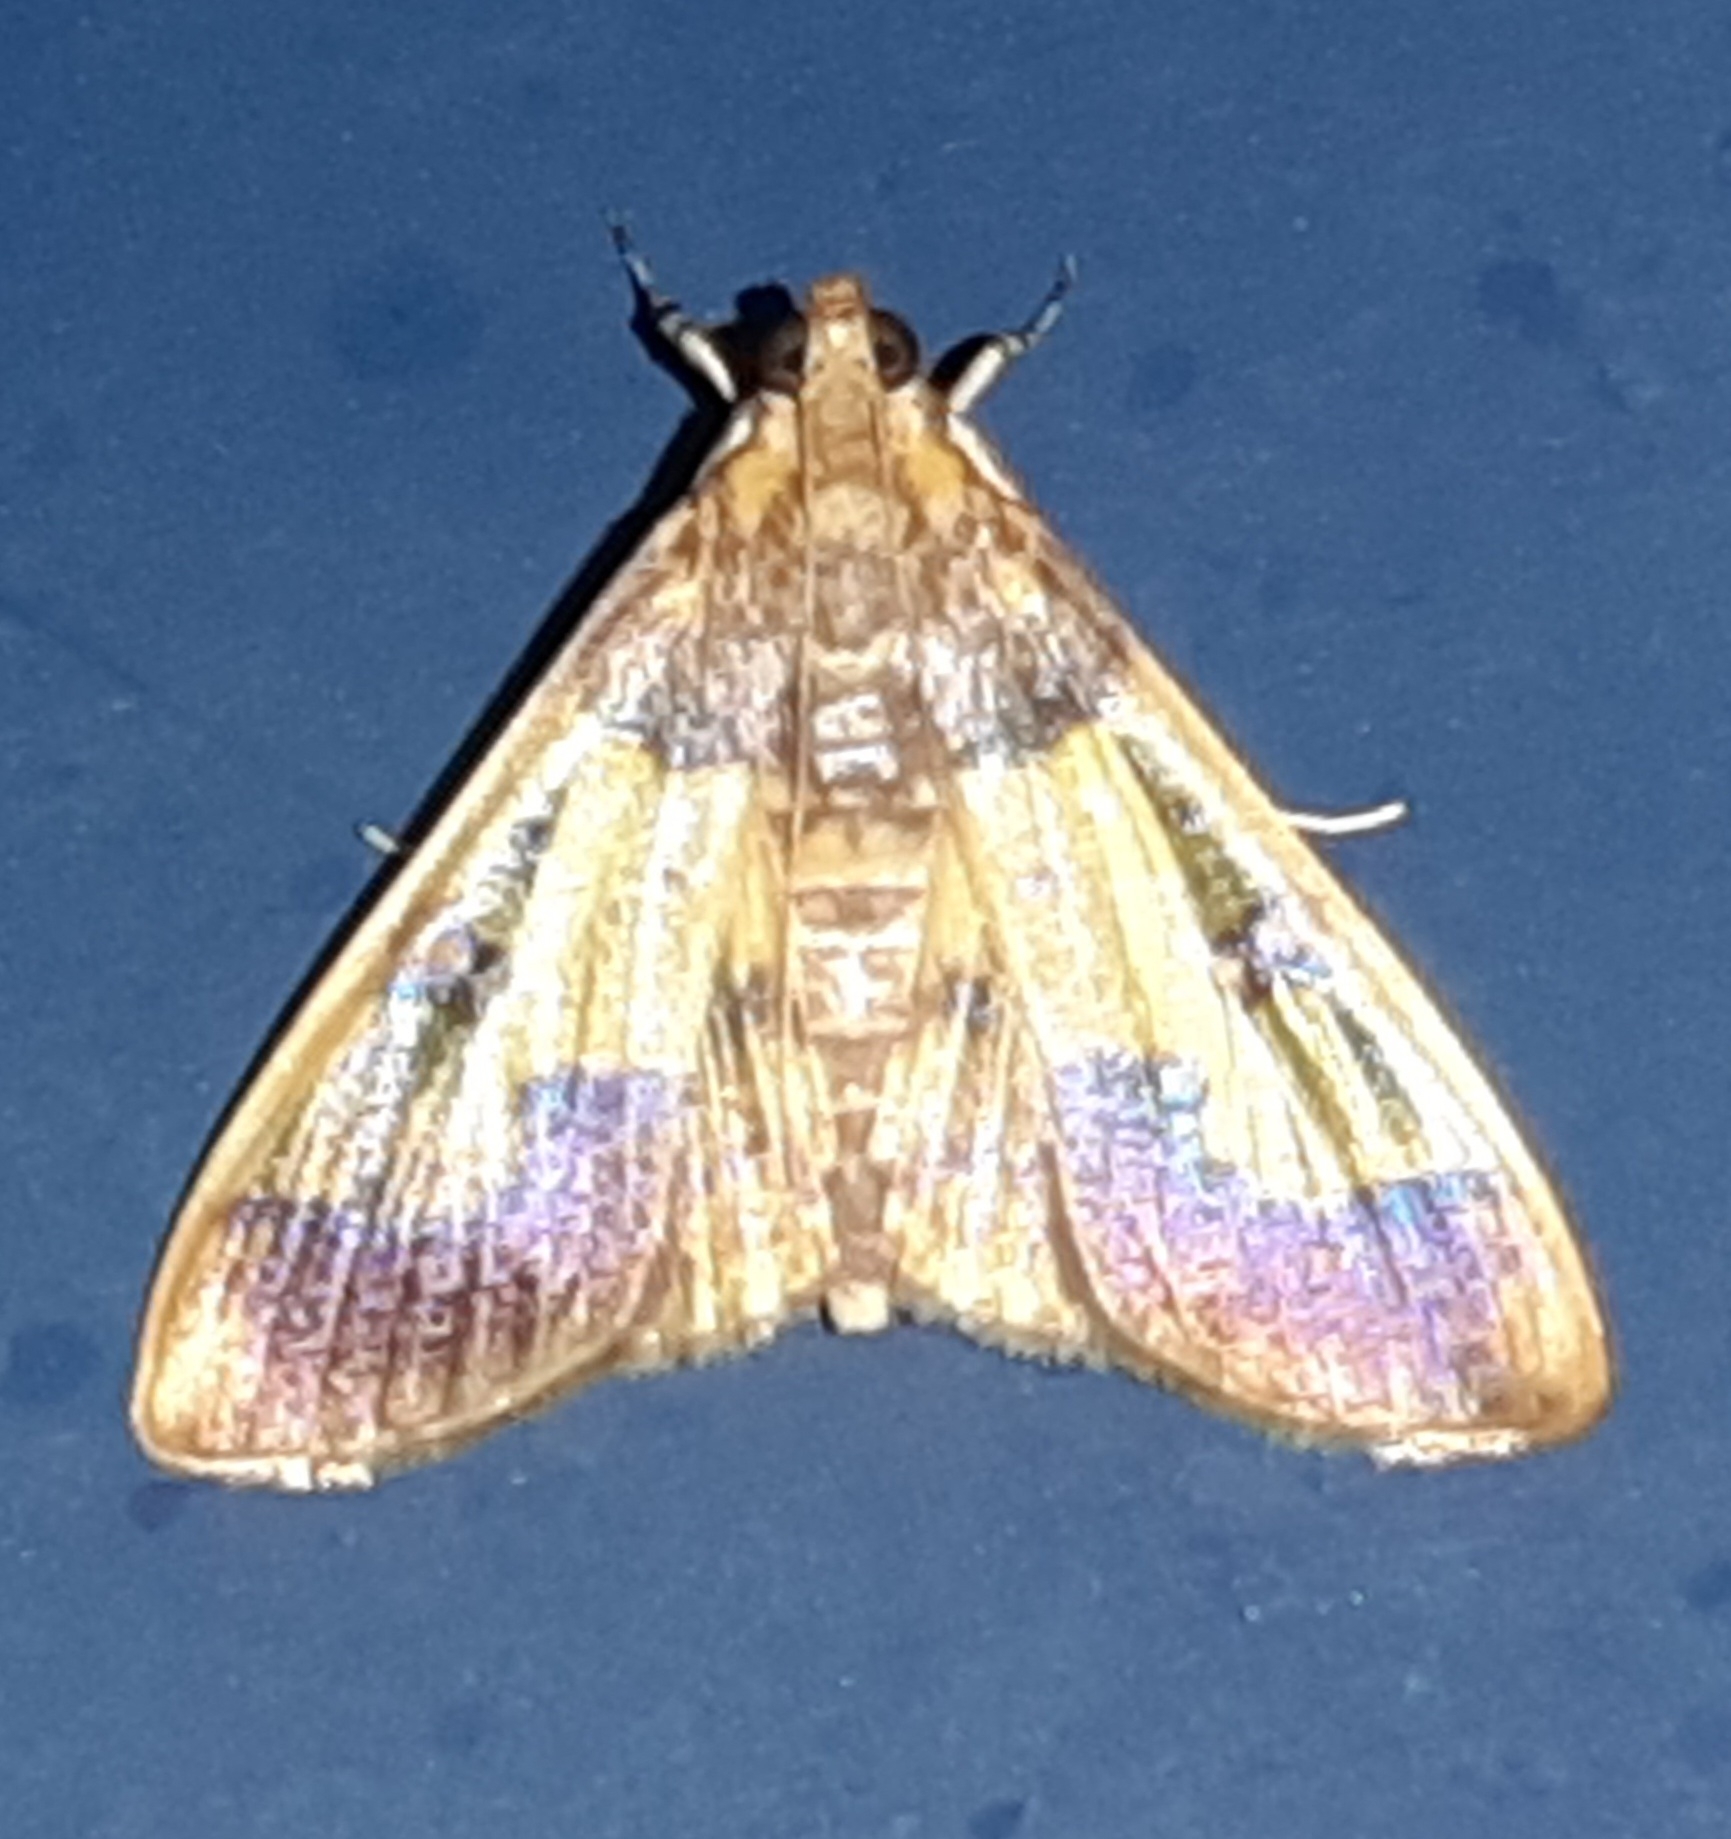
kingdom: Animalia
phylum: Arthropoda
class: Insecta
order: Lepidoptera
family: Crambidae
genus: Syllepte
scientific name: Syllepte pactolalis
